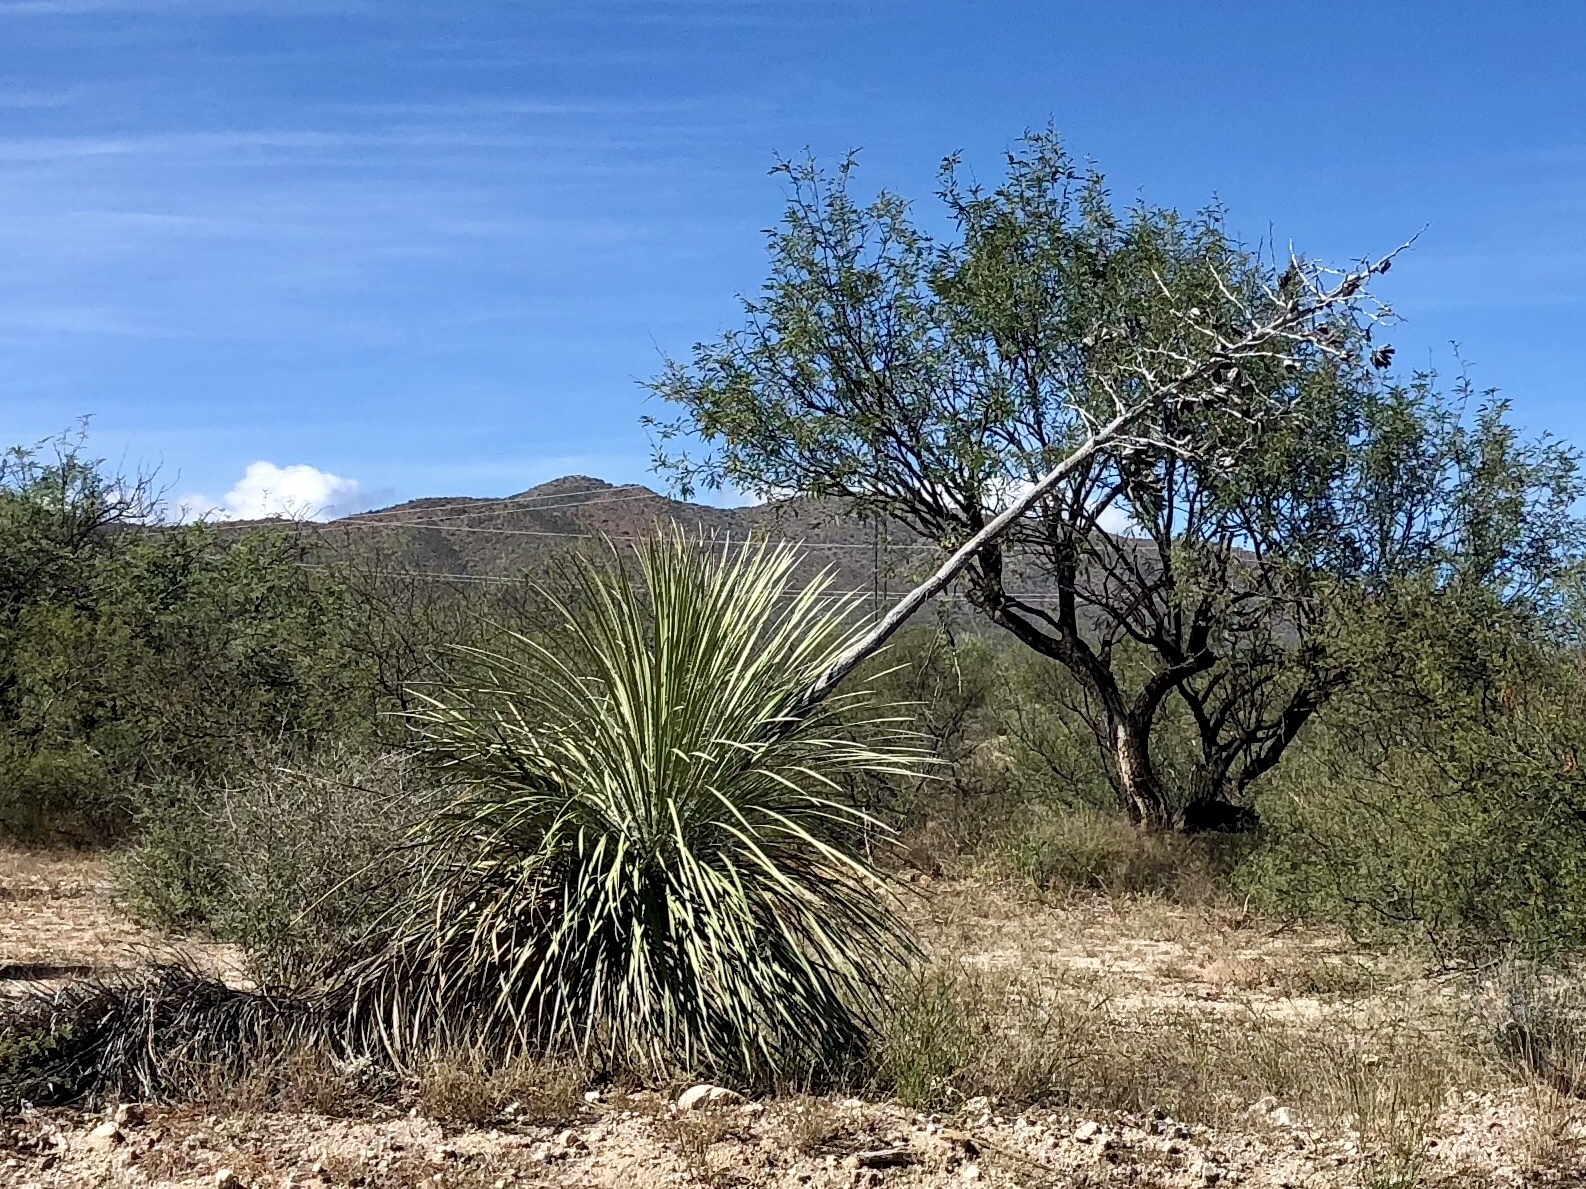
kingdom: Plantae
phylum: Tracheophyta
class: Liliopsida
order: Asparagales
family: Asparagaceae
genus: Yucca
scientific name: Yucca elata
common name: Palmella
